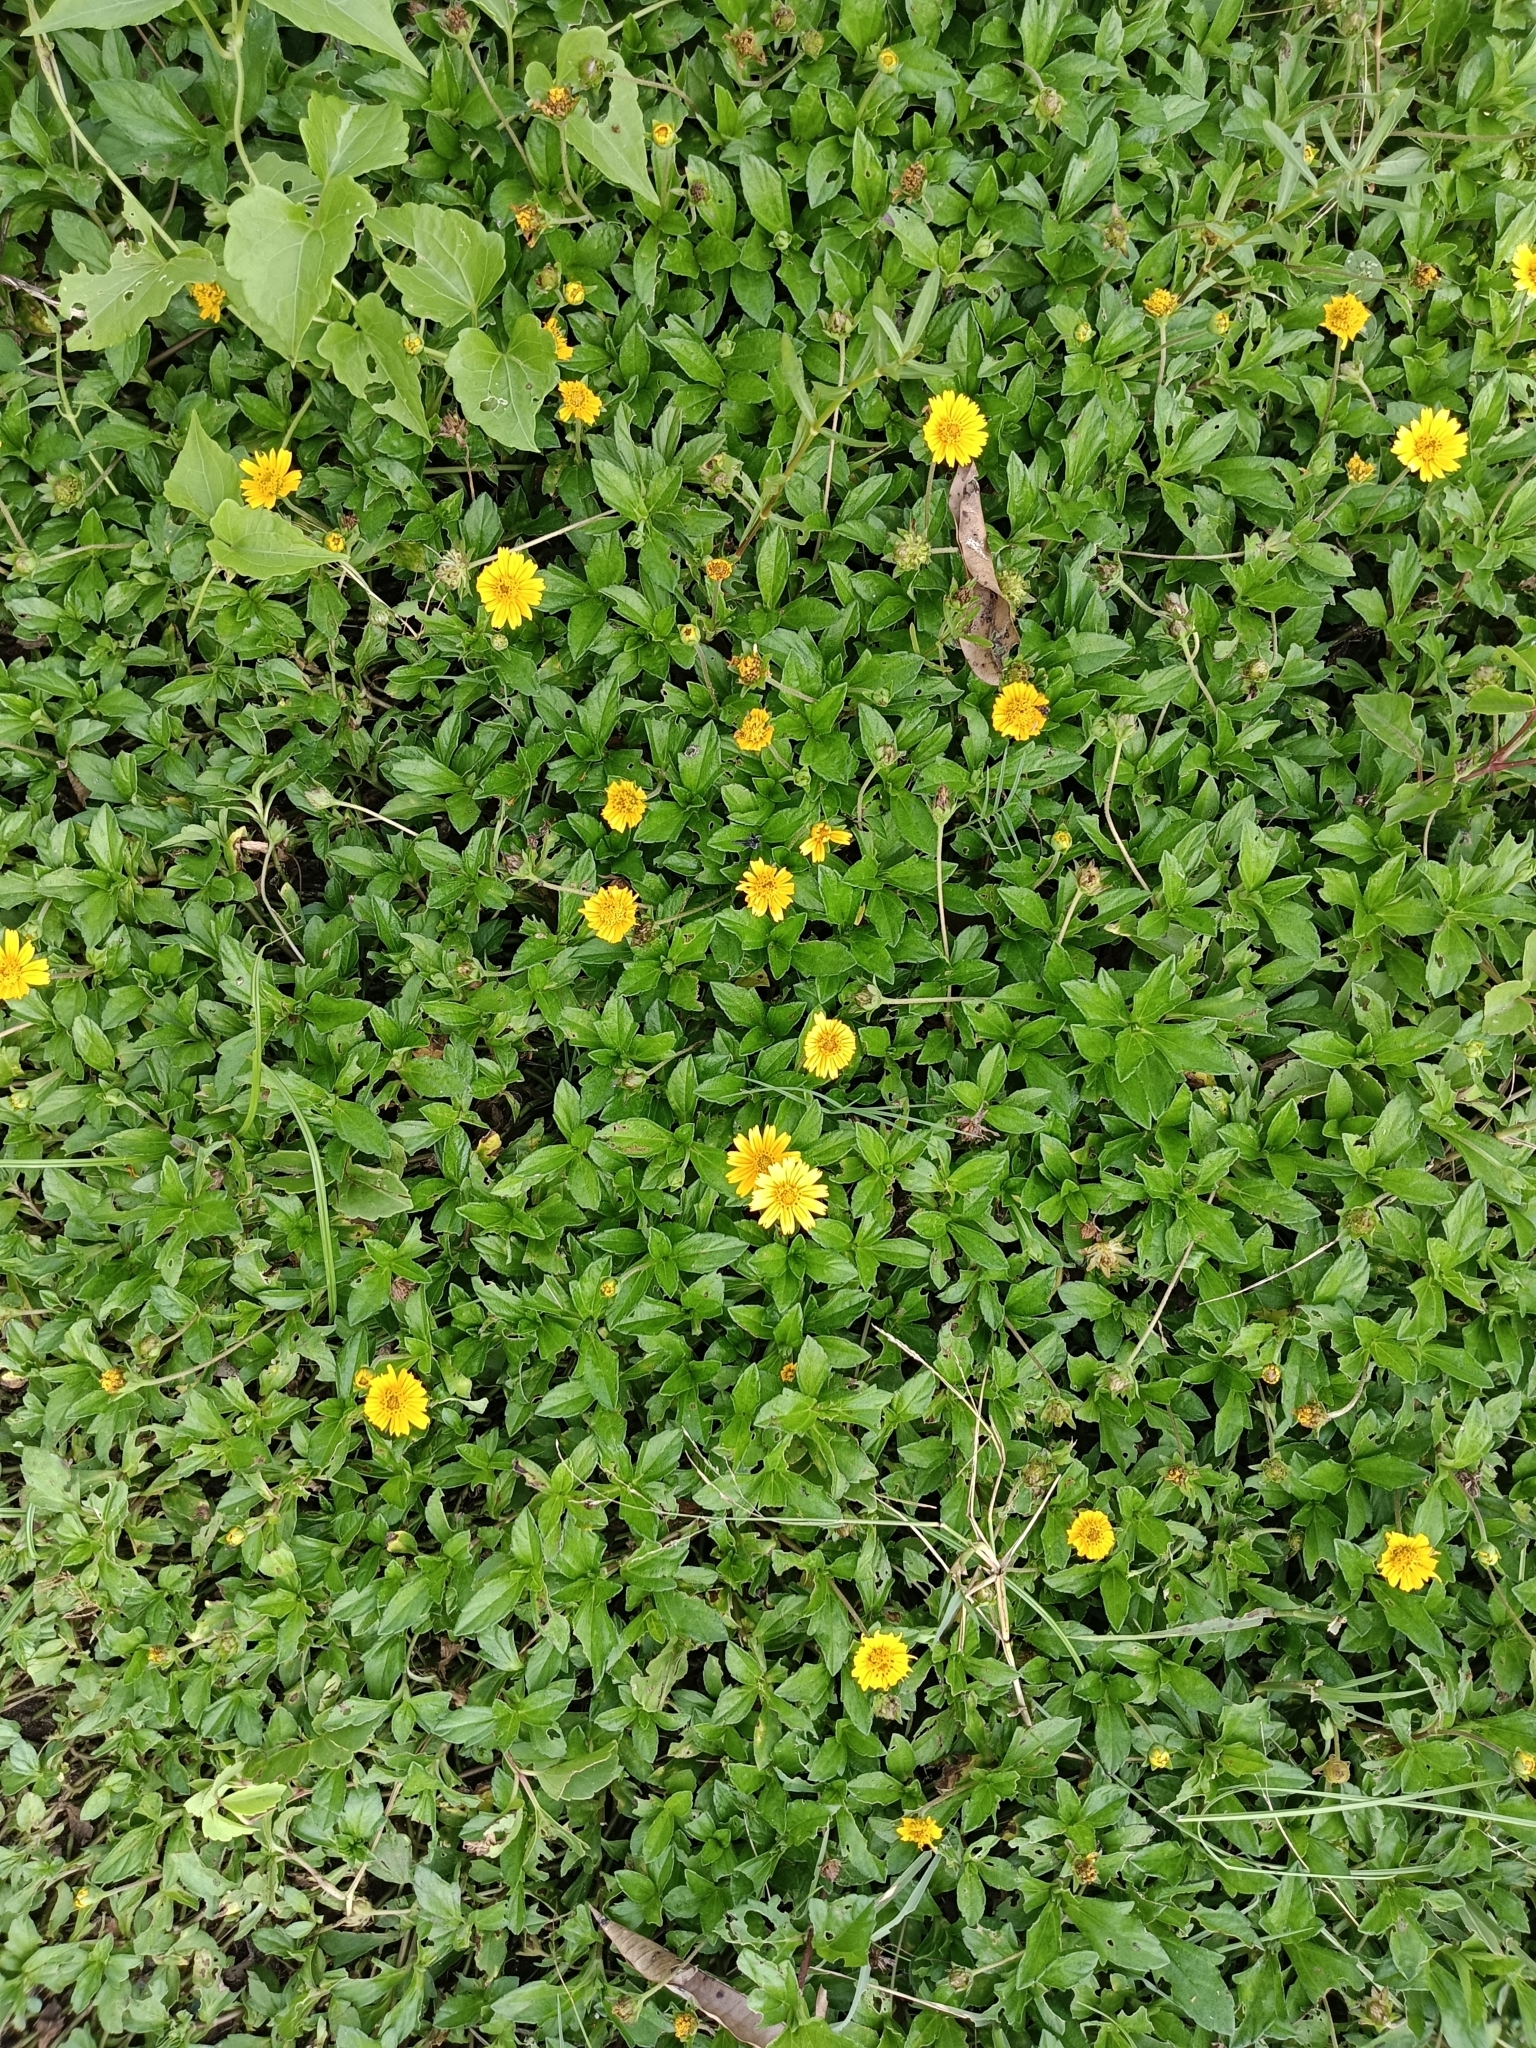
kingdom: Plantae
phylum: Tracheophyta
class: Magnoliopsida
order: Asterales
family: Asteraceae
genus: Sphagneticola
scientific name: Sphagneticola trilobata
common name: Bay biscayne creeping-oxeye
